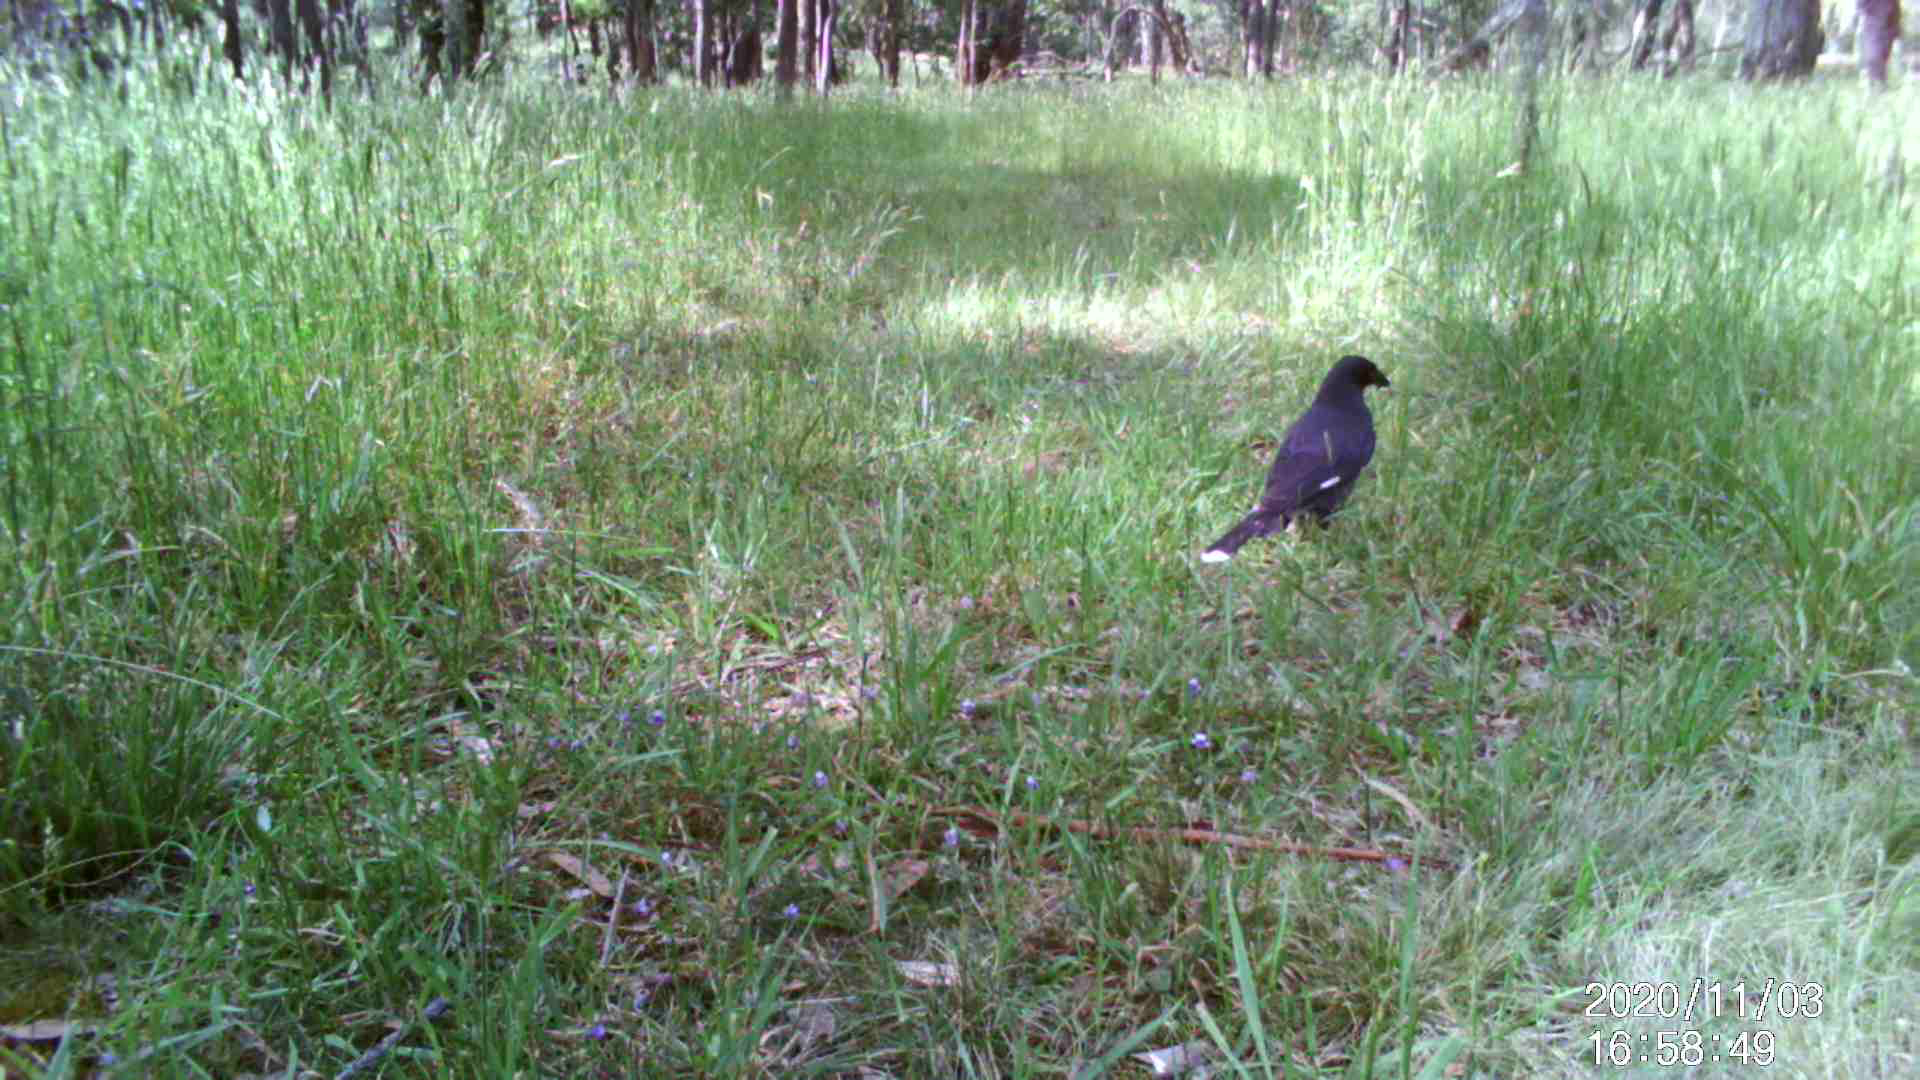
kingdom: Animalia
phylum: Chordata
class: Aves
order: Passeriformes
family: Cracticidae
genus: Strepera
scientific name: Strepera graculina
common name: Pied currawong
